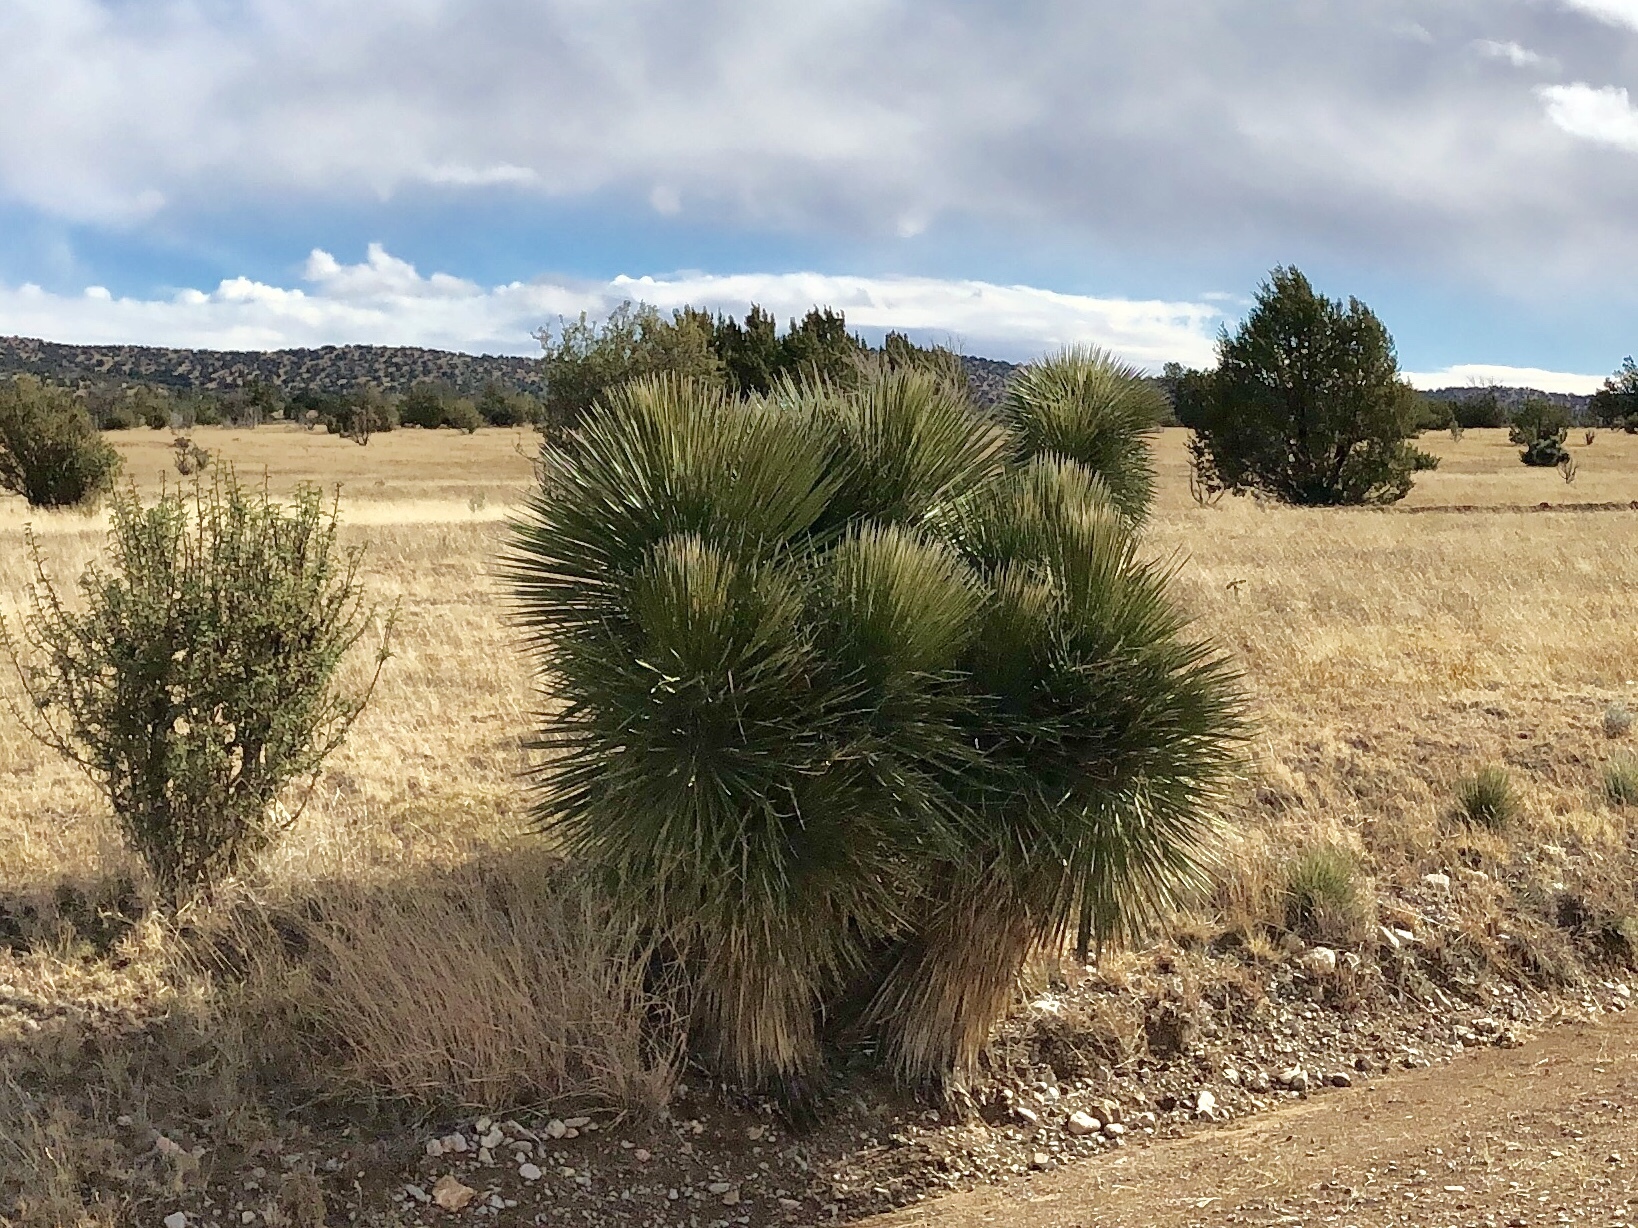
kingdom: Plantae
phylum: Tracheophyta
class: Liliopsida
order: Asparagales
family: Asparagaceae
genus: Yucca
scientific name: Yucca elata
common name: Palmella
